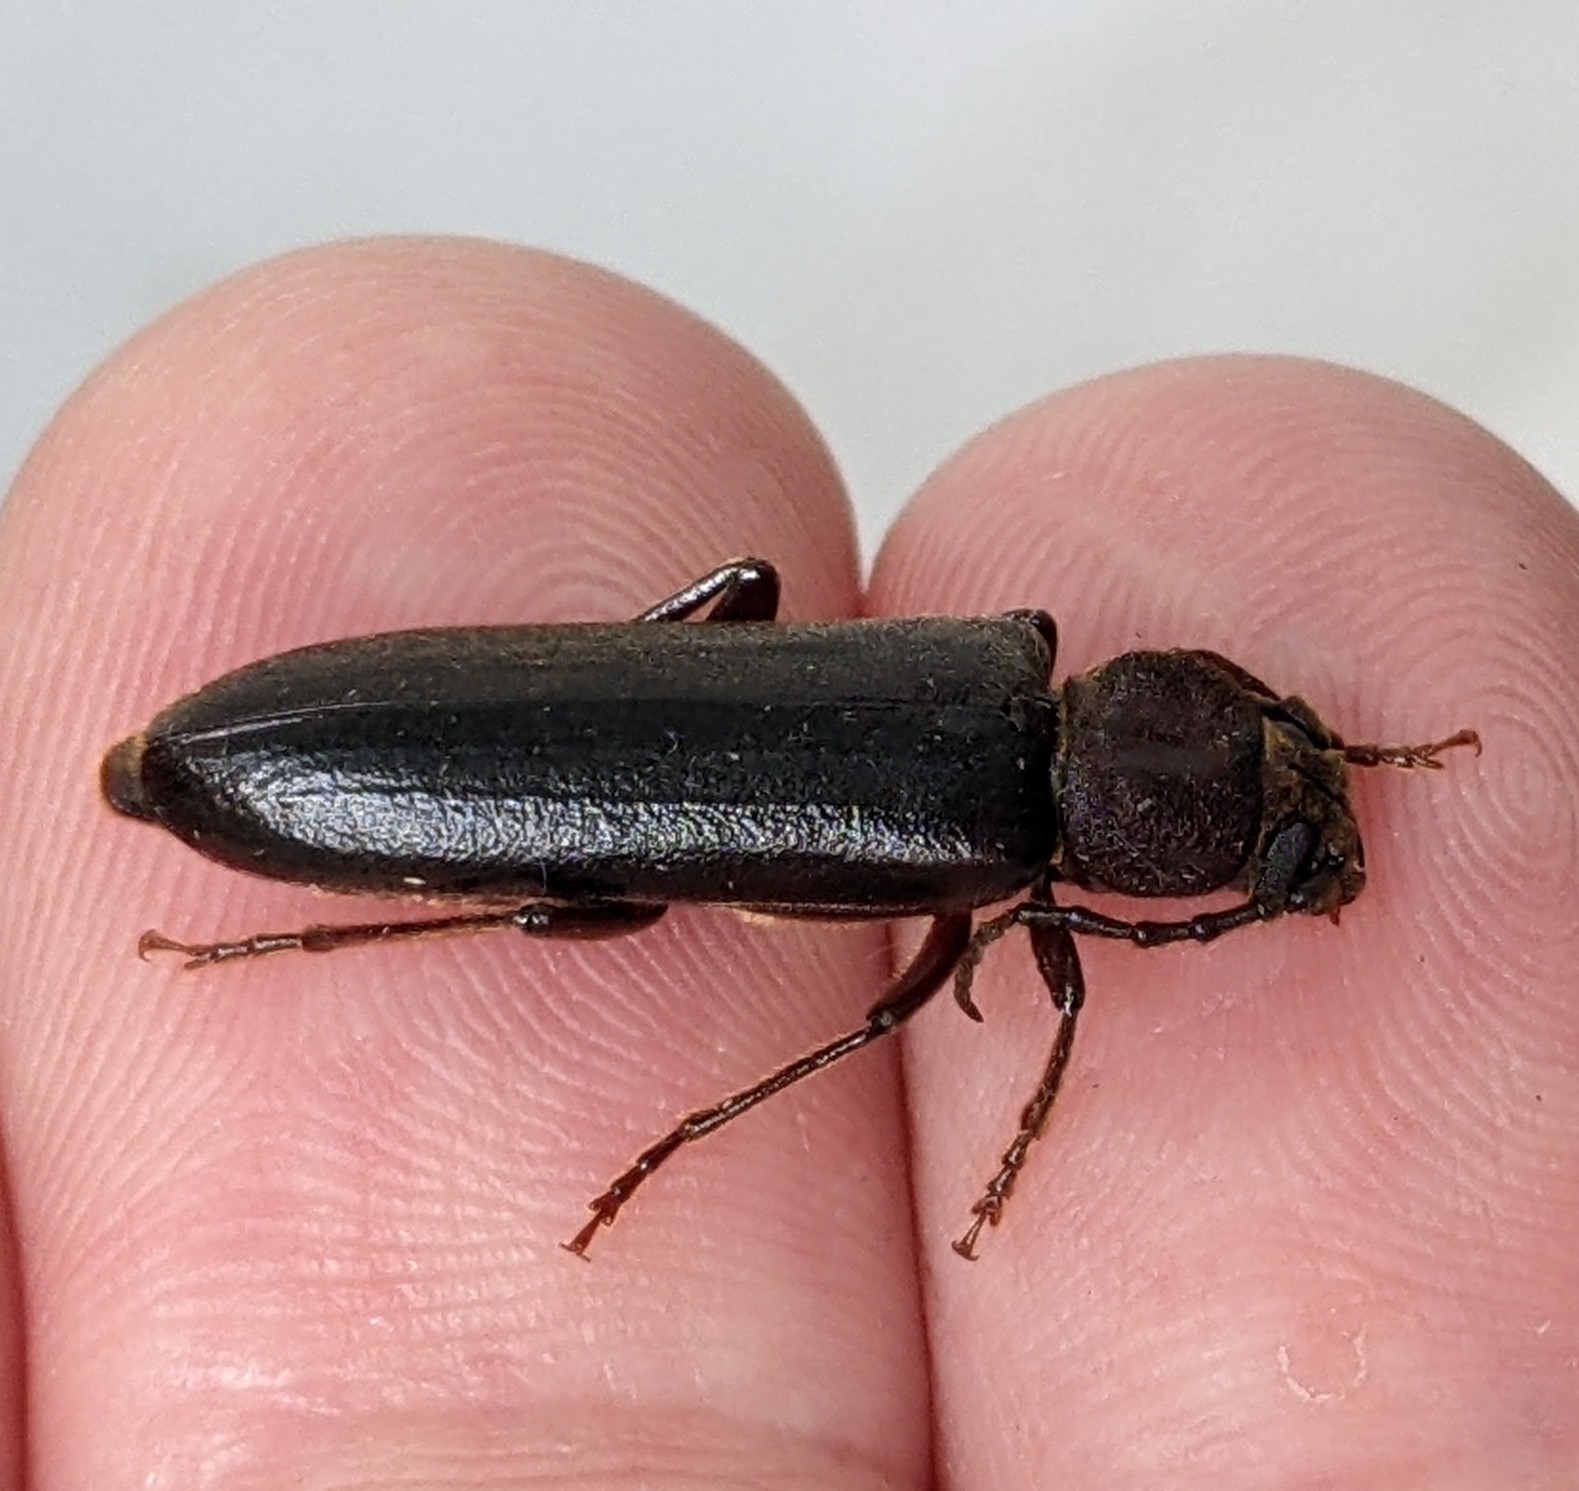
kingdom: Animalia
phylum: Arthropoda
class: Insecta
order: Coleoptera
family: Cerambycidae
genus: Megasemum
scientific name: Megasemum asperum
